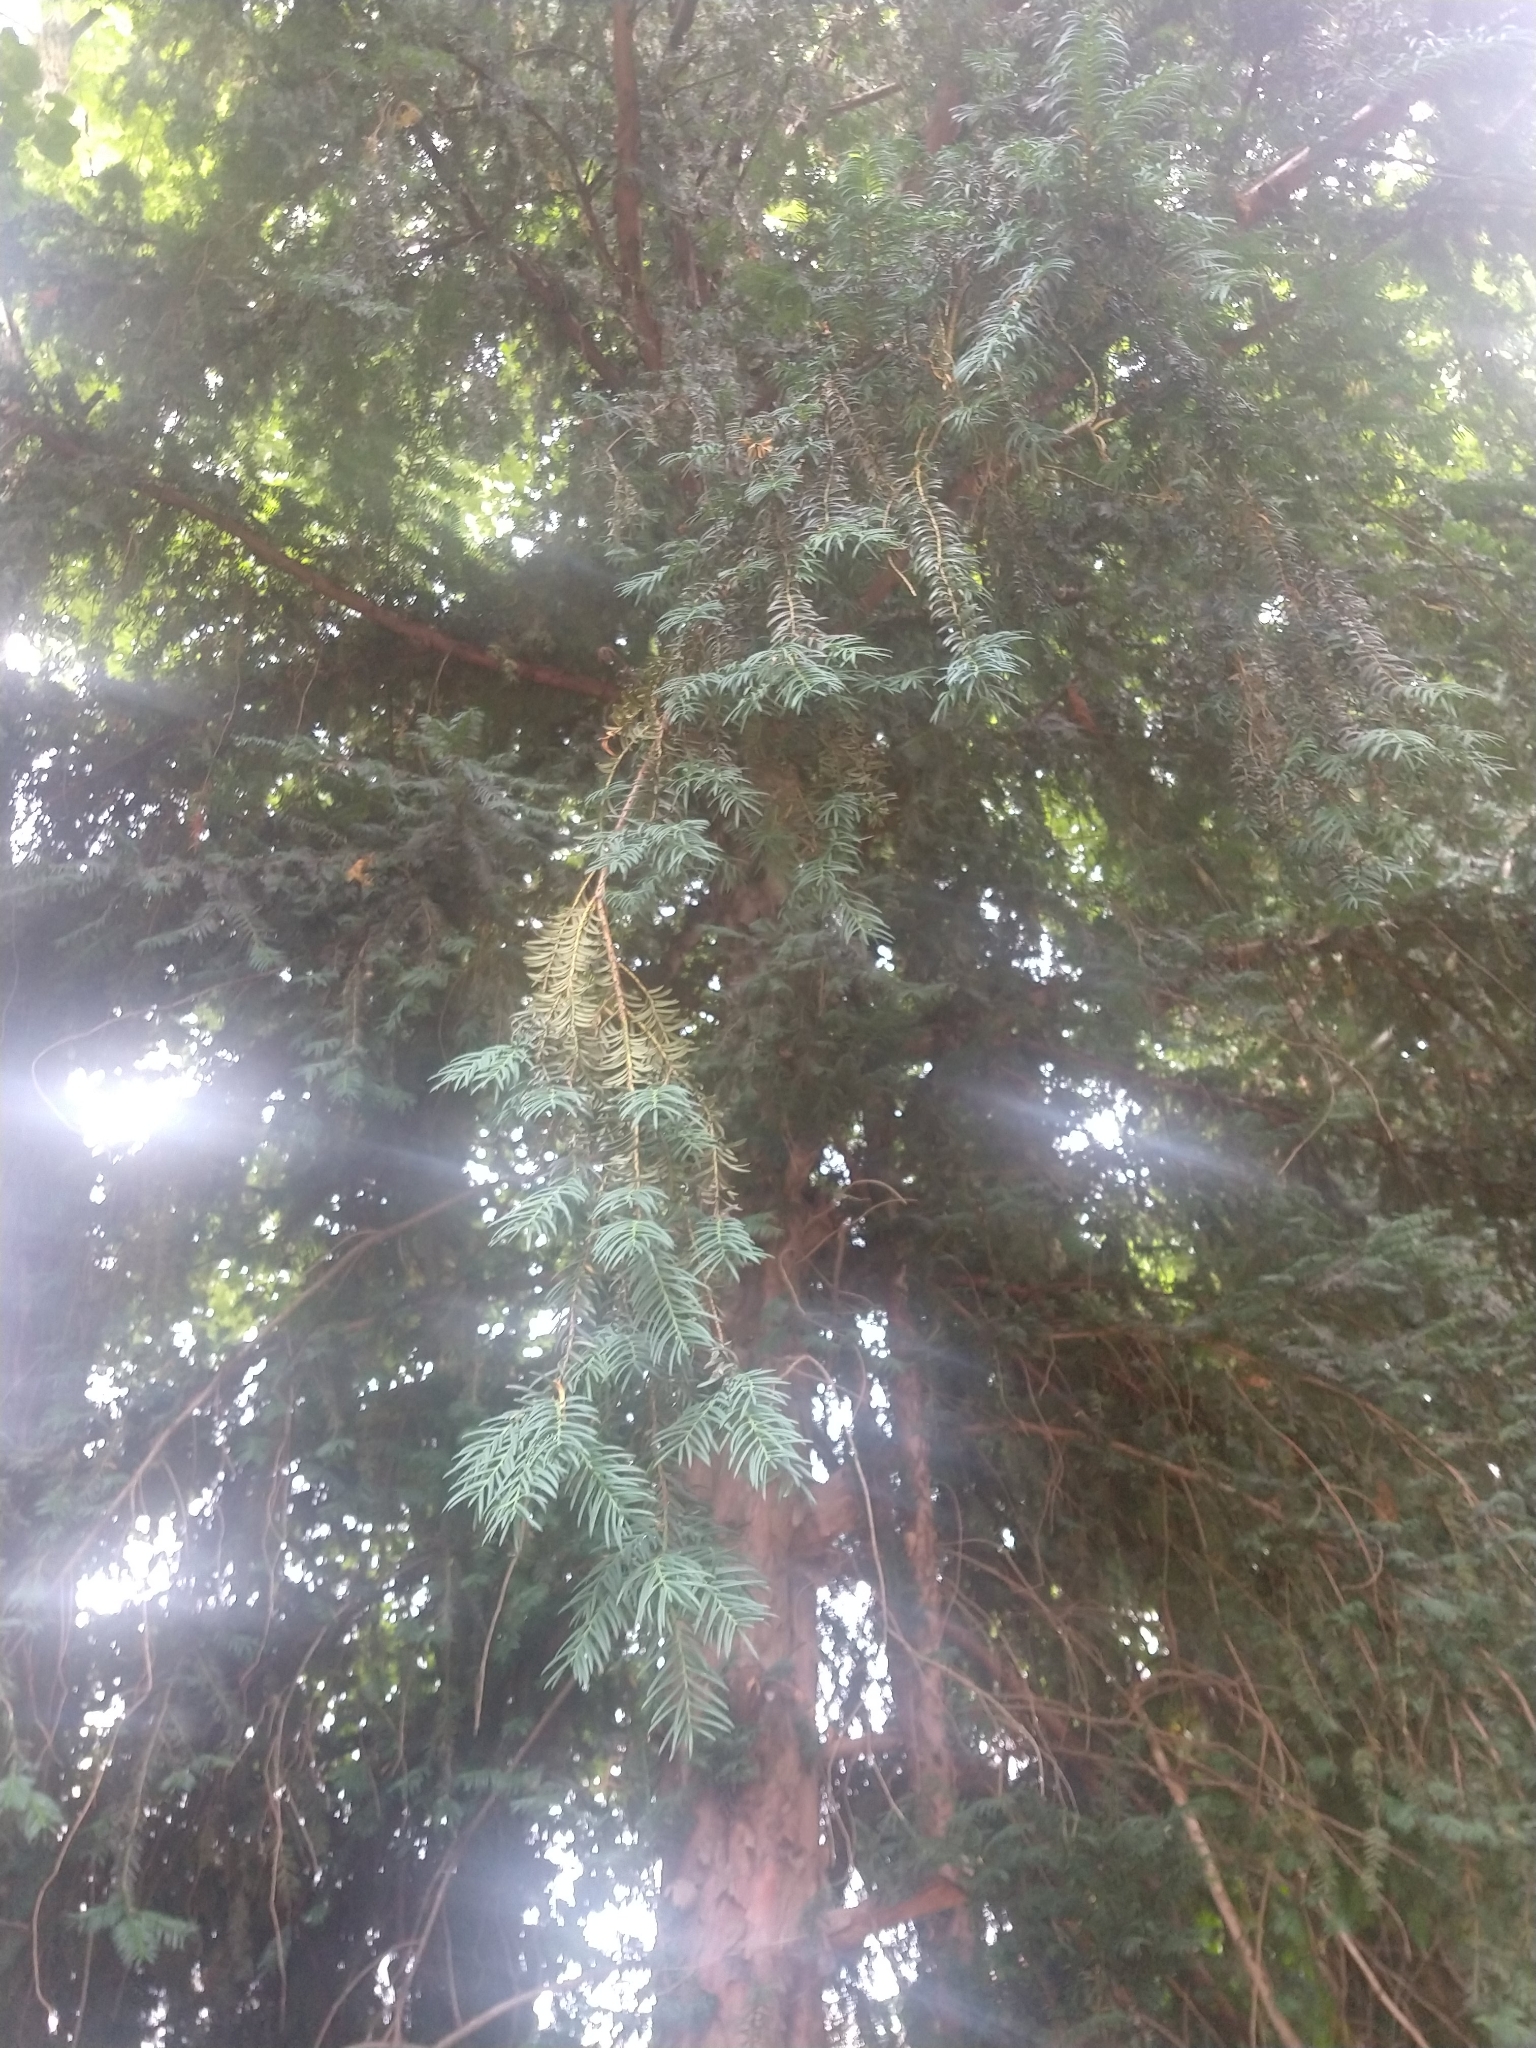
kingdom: Plantae
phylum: Tracheophyta
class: Pinopsida
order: Pinales
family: Taxaceae
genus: Taxus
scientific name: Taxus baccata
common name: Yew
